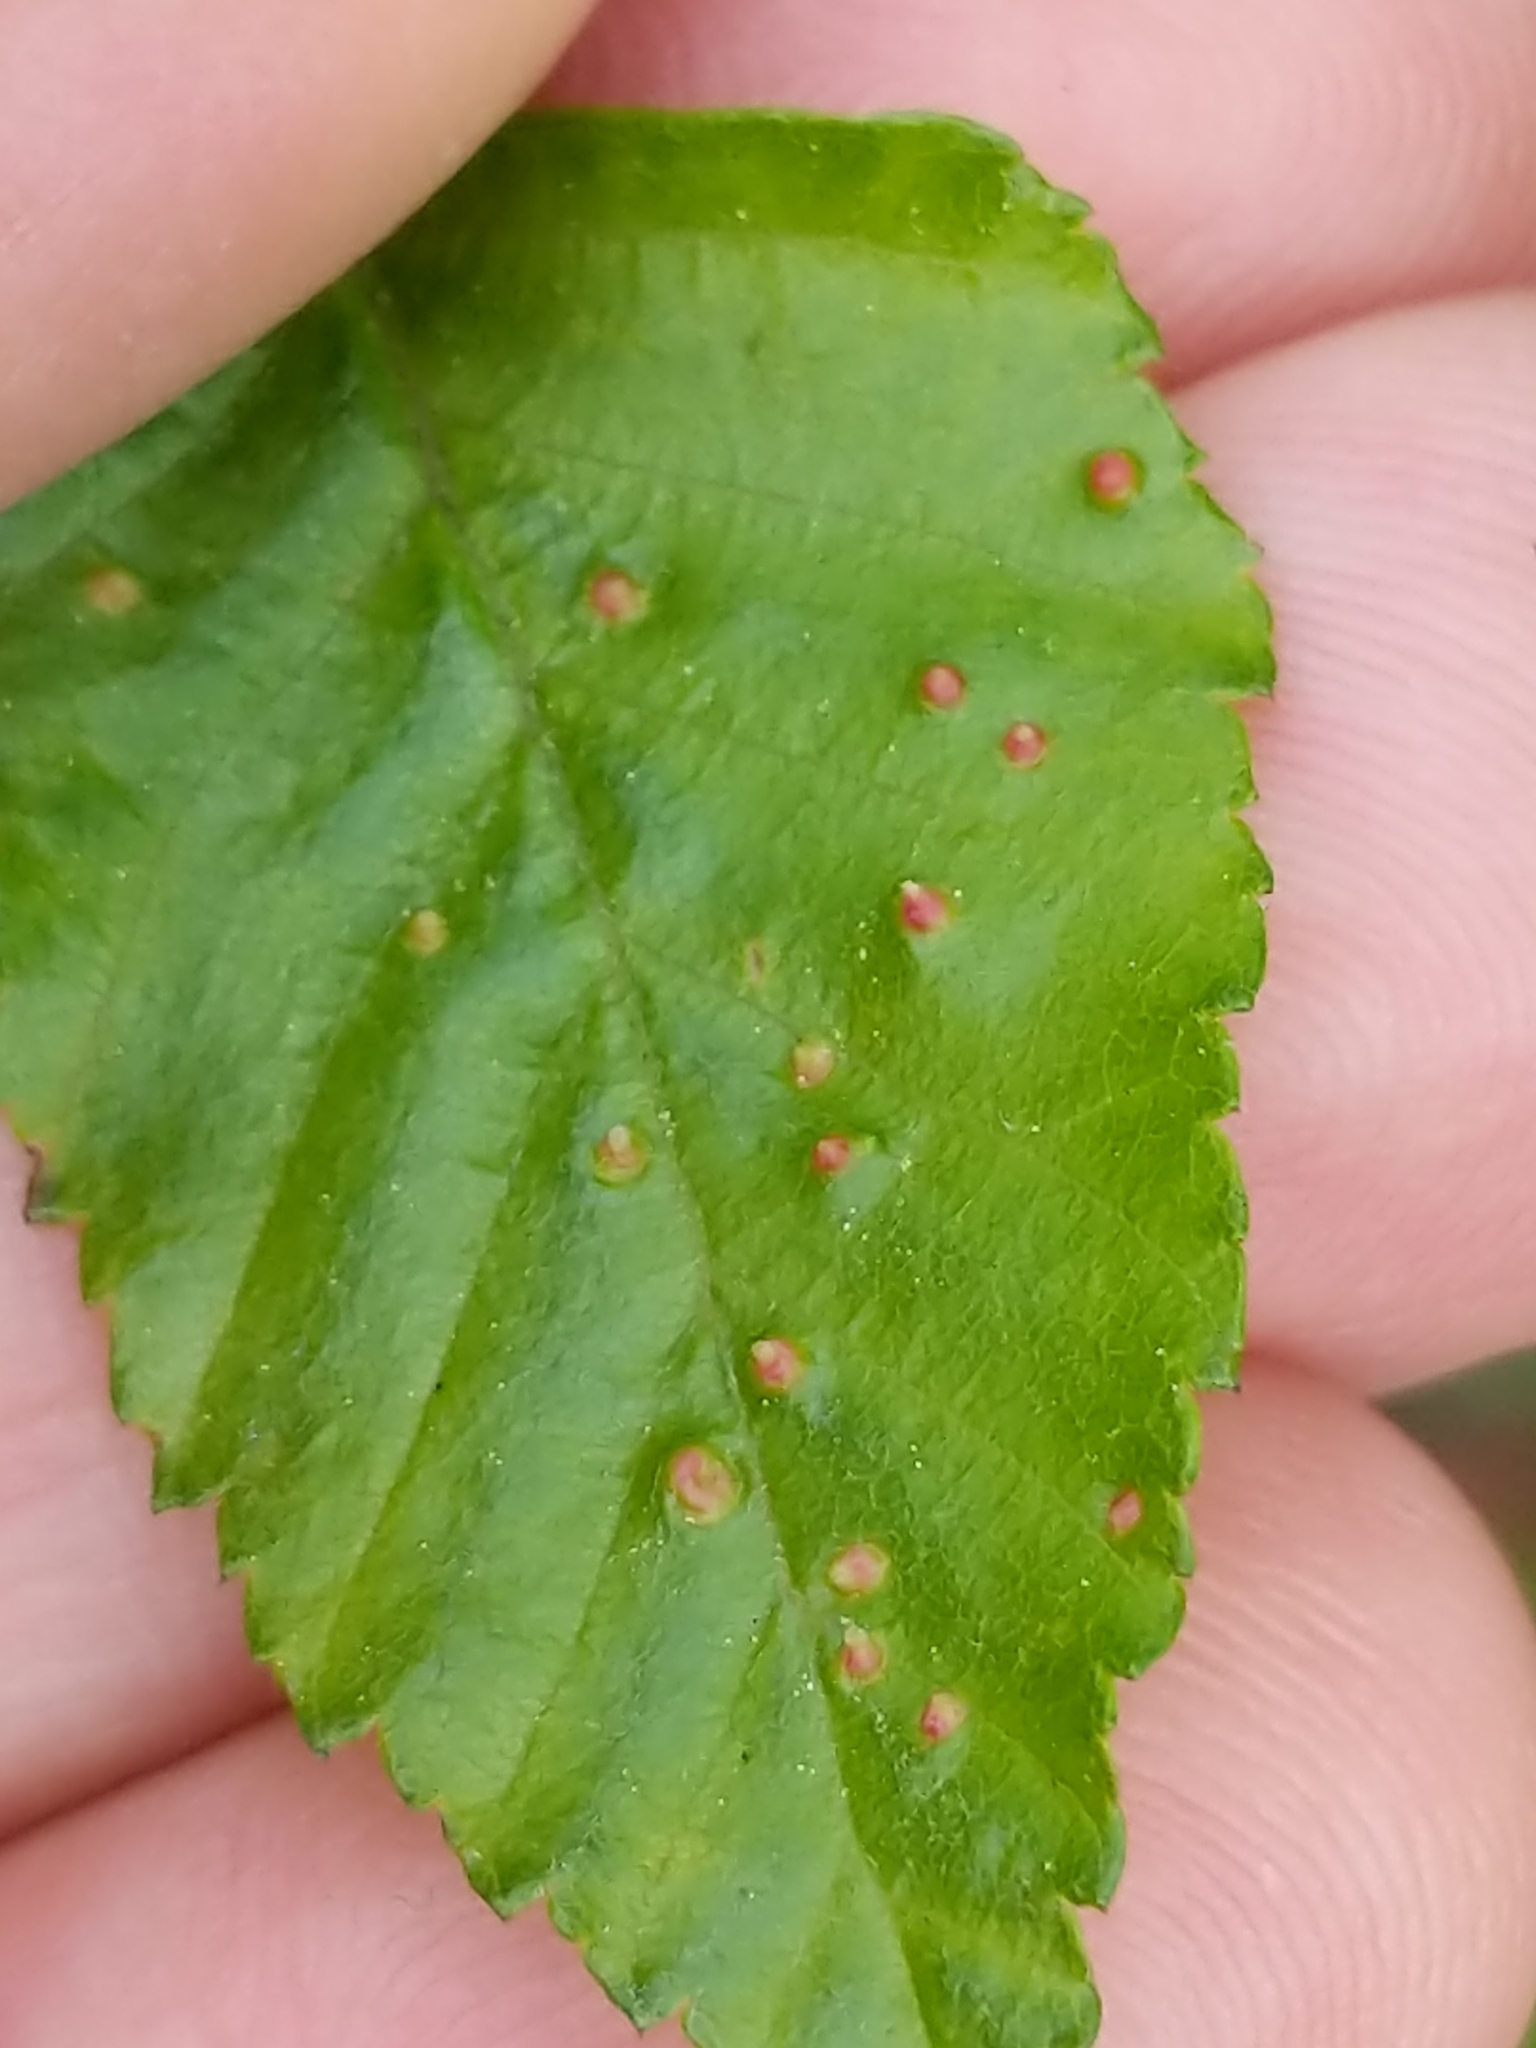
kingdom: Animalia
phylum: Arthropoda
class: Arachnida
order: Trombidiformes
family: Eriophyidae
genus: Eriophyes
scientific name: Eriophyes laevis
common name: Alder leaf gall mite
